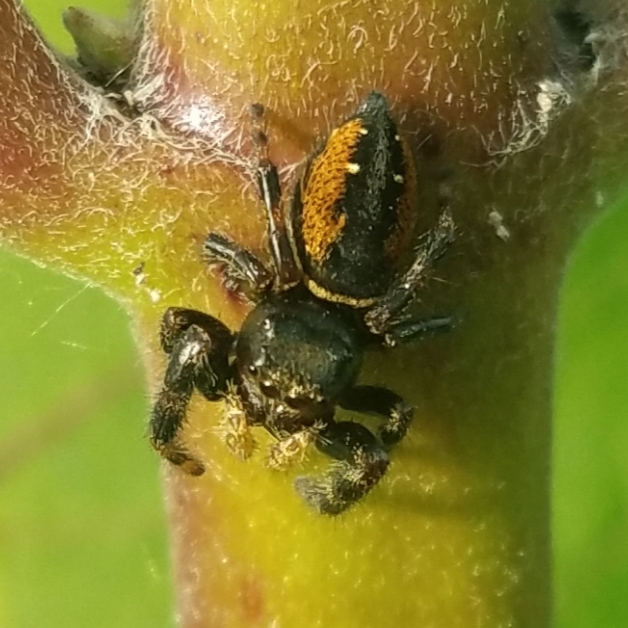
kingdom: Animalia
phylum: Arthropoda
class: Arachnida
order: Araneae
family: Salticidae
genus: Phidippus
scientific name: Phidippus clarus
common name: Brilliant jumping spider
